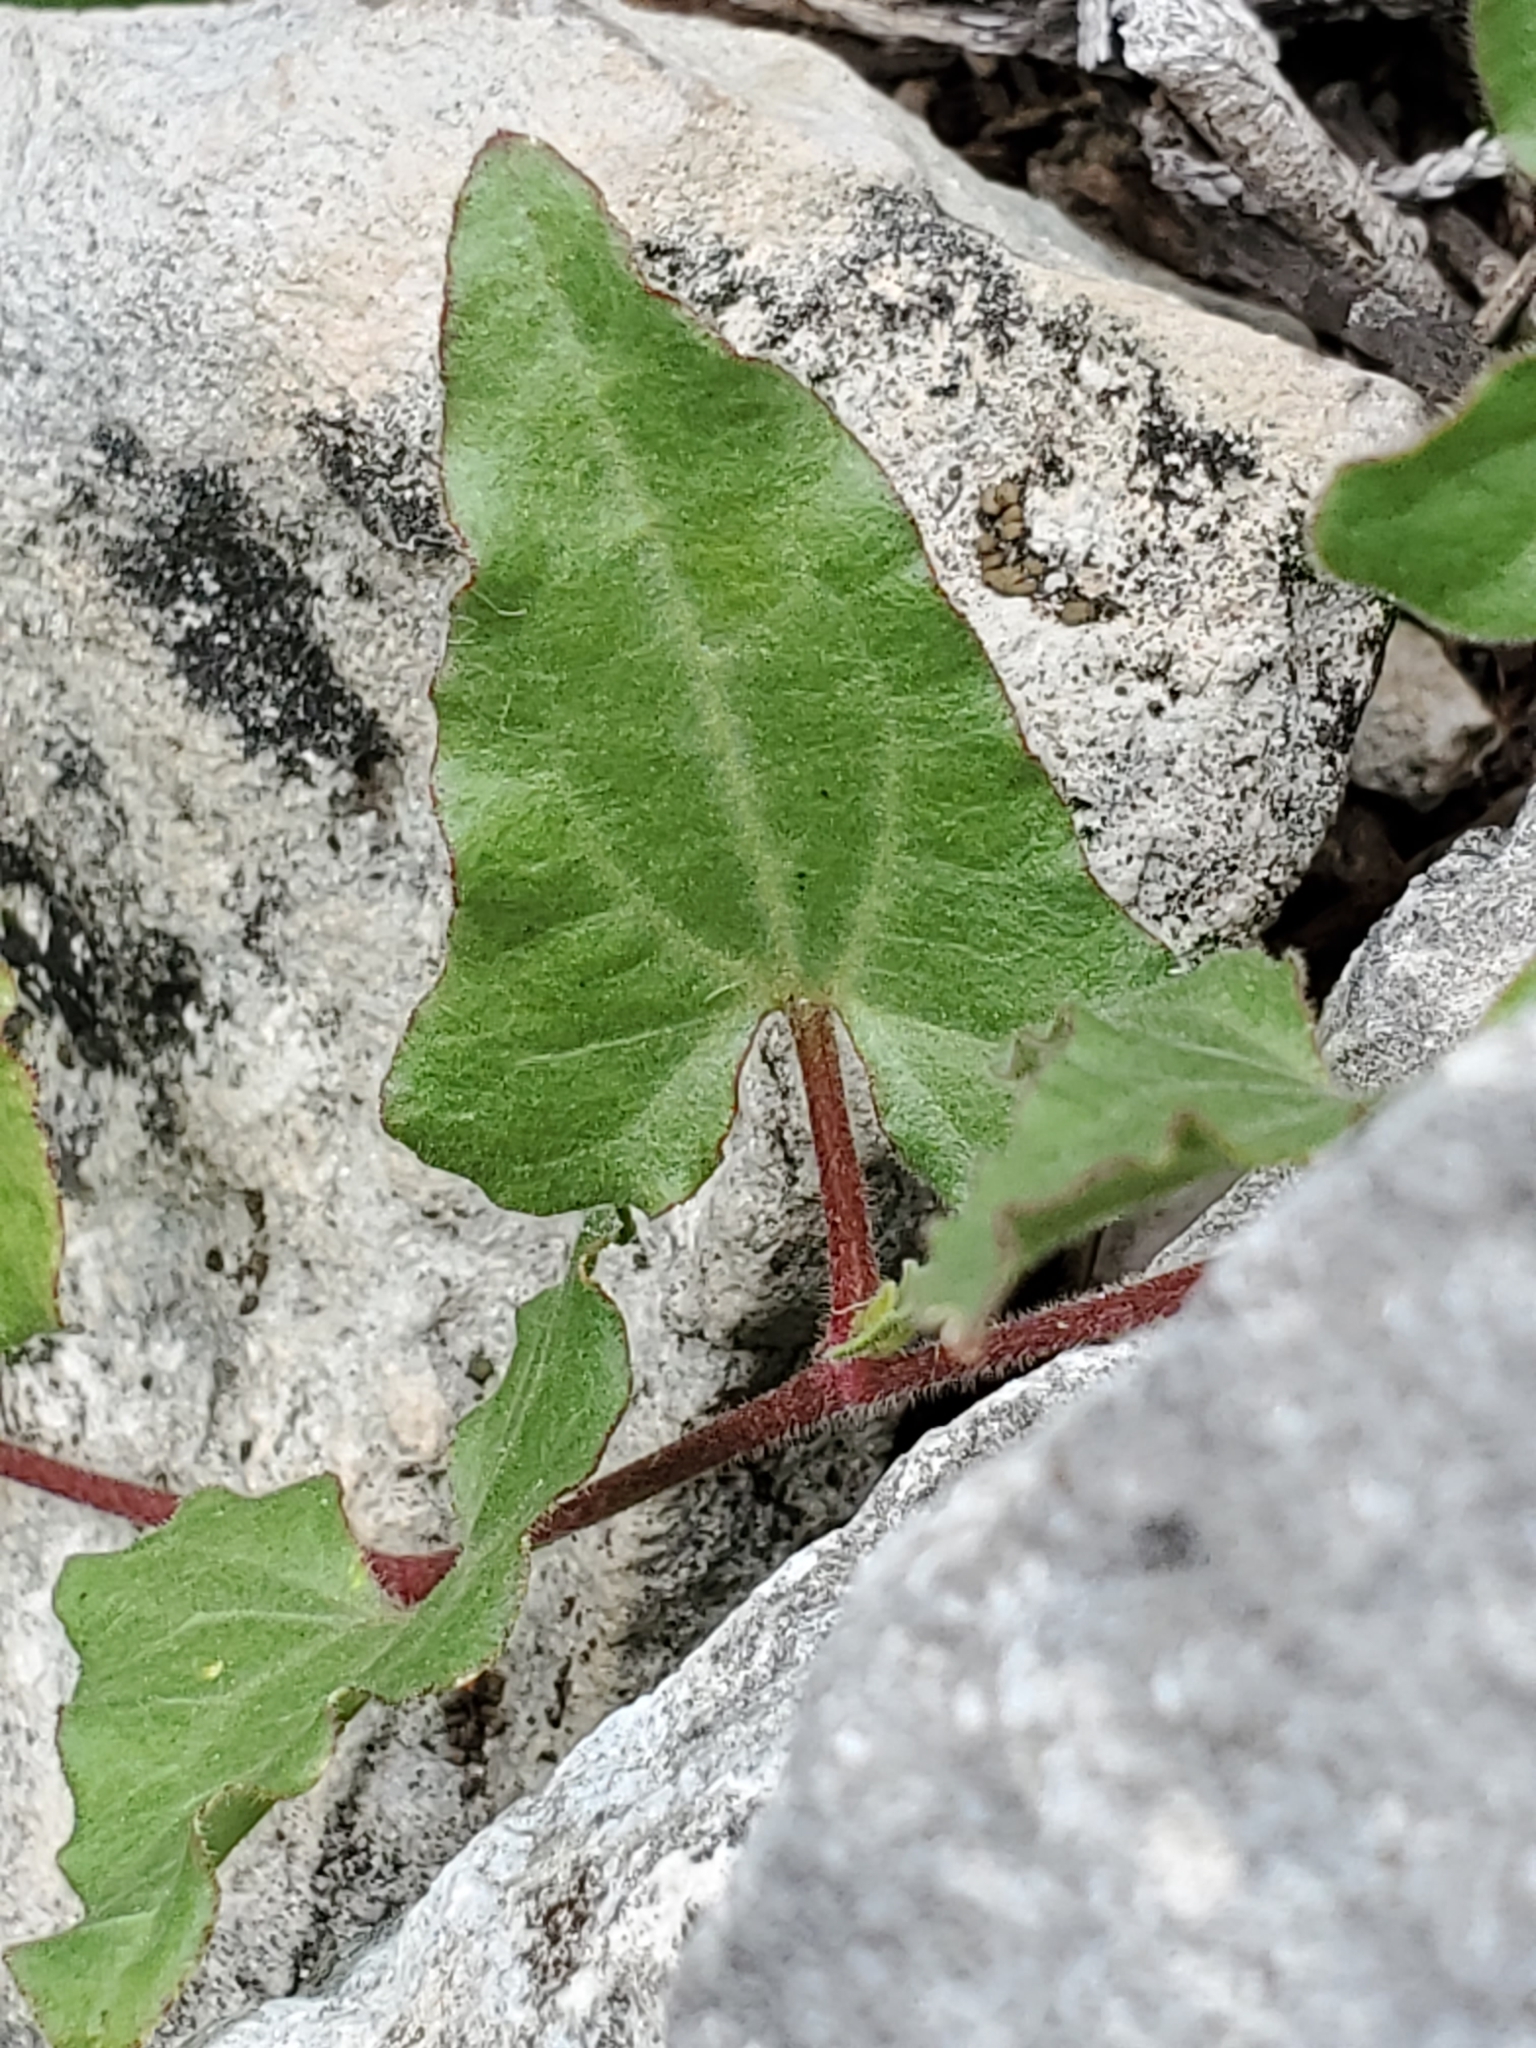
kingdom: Plantae
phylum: Tracheophyta
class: Magnoliopsida
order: Piperales
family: Aristolochiaceae
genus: Aristolochia
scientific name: Aristolochia coryi
